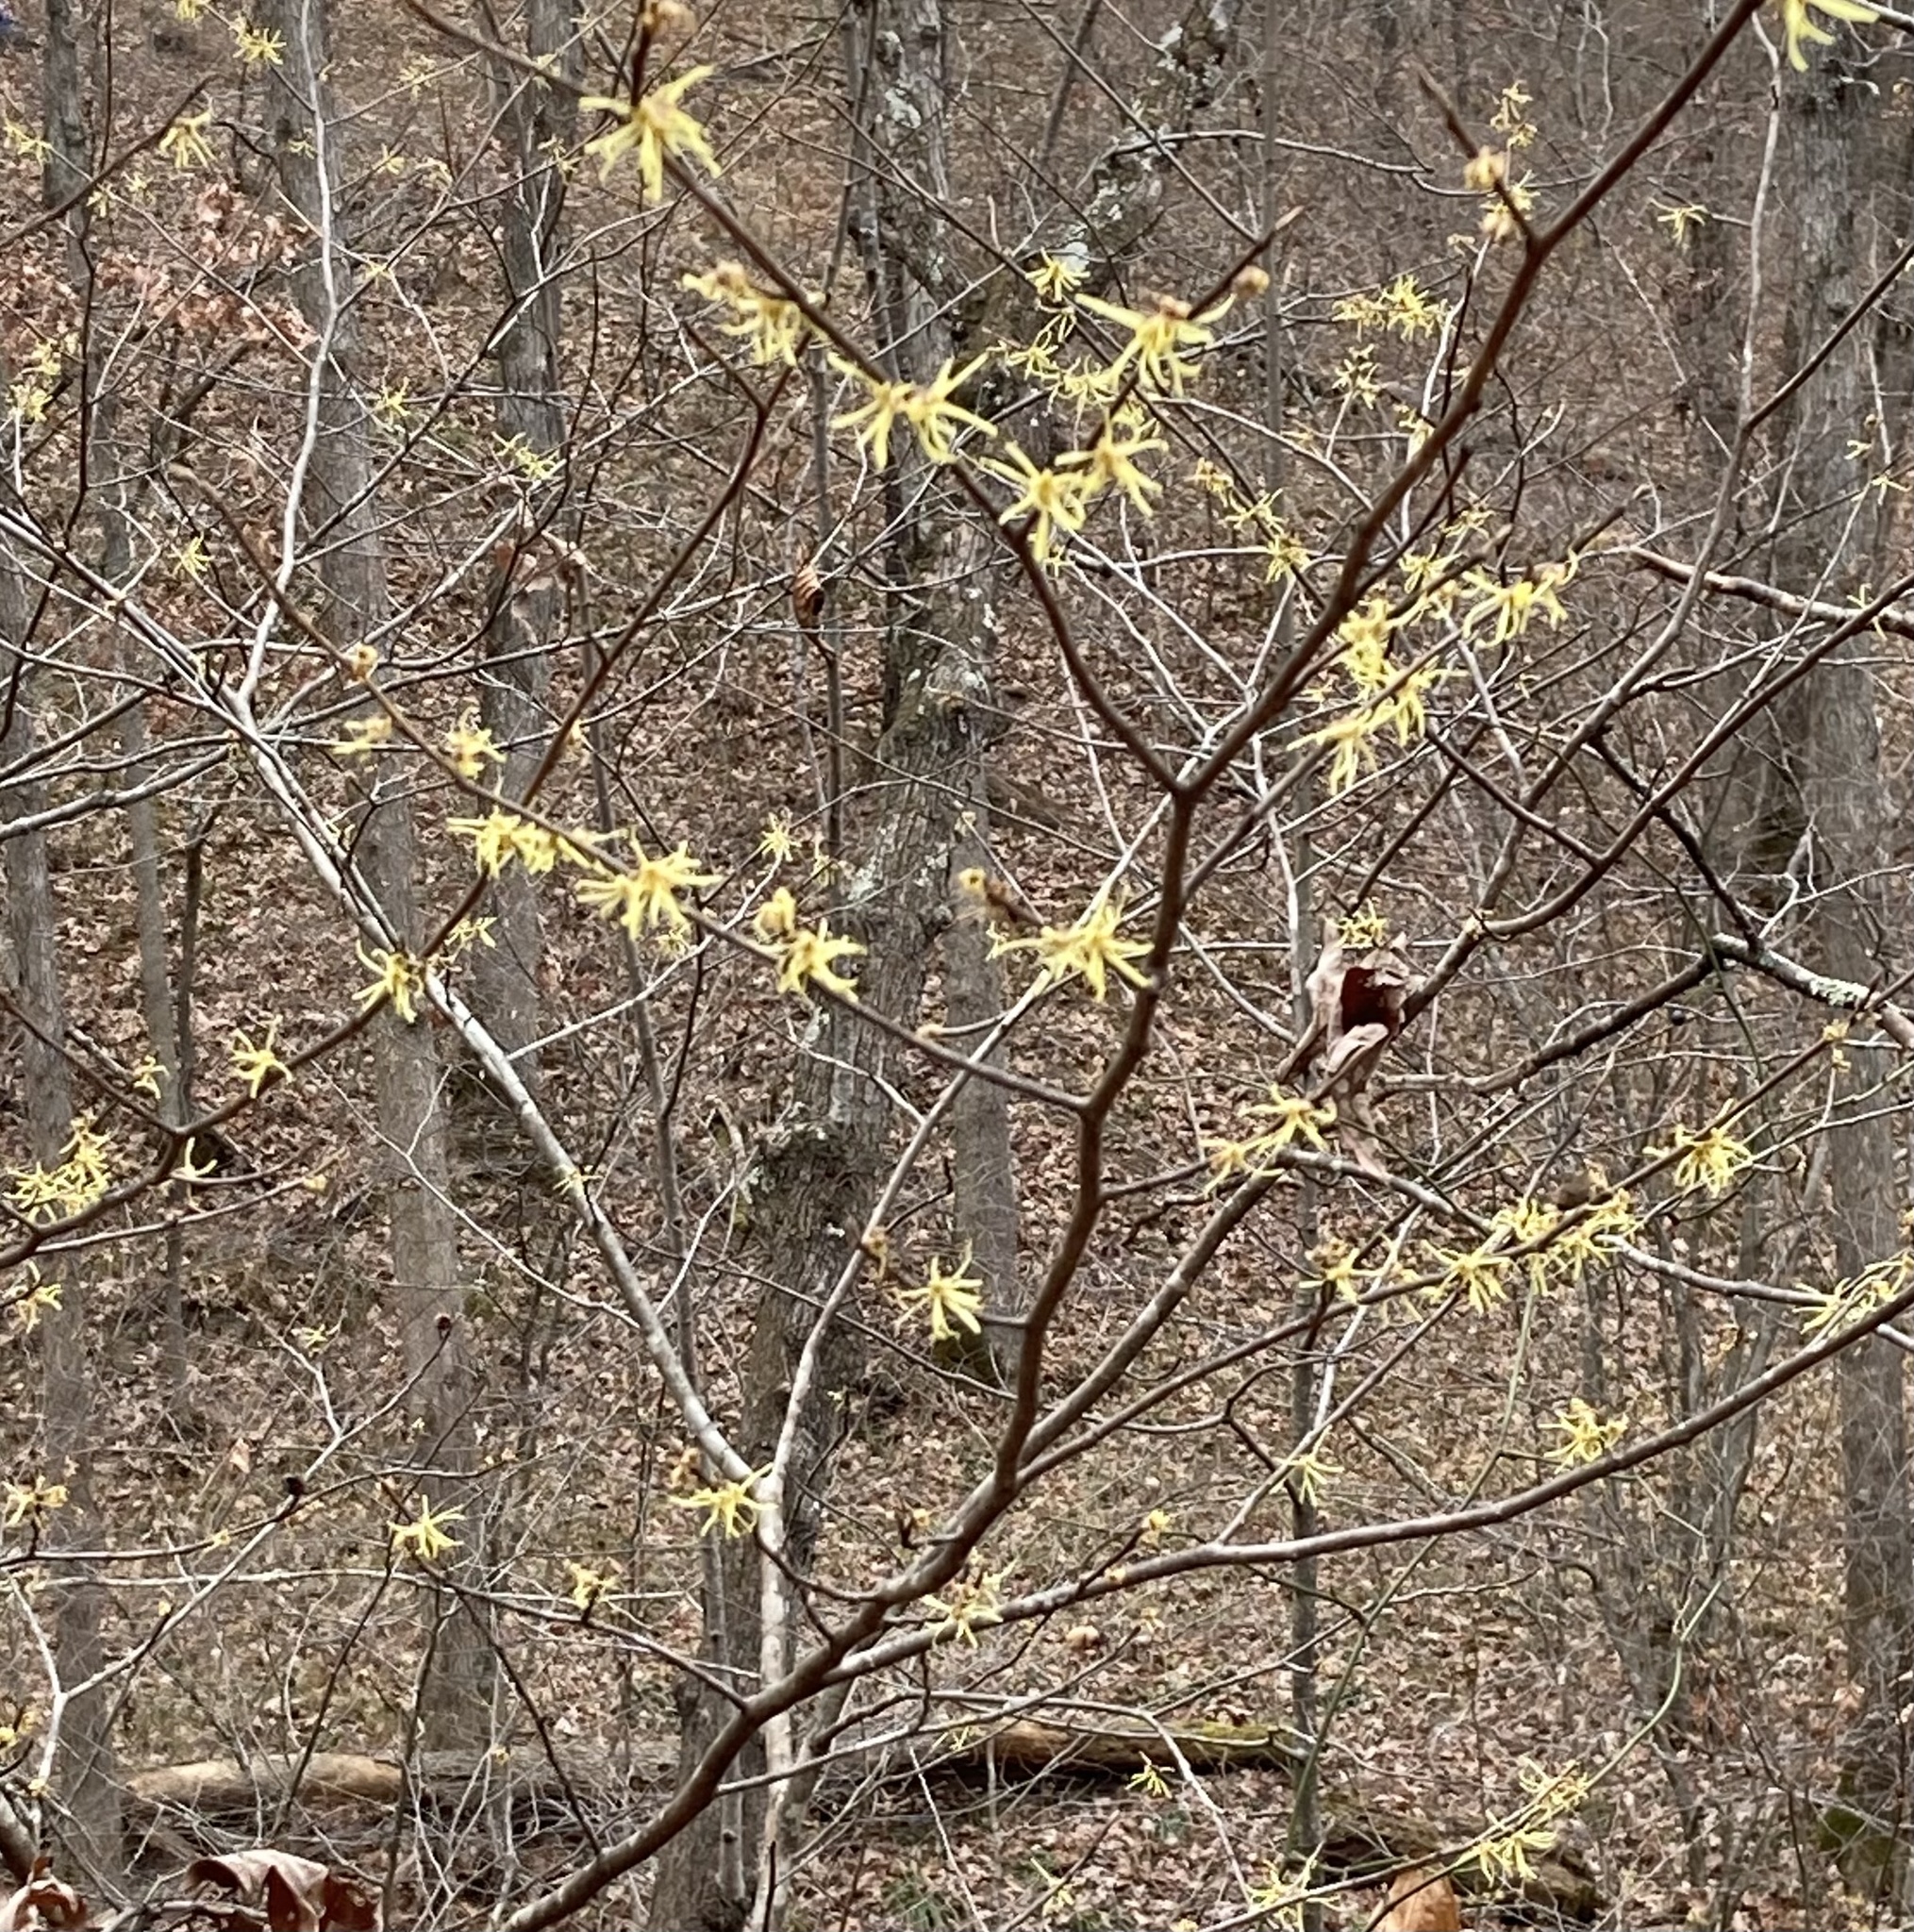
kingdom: Plantae
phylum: Tracheophyta
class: Magnoliopsida
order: Saxifragales
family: Hamamelidaceae
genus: Hamamelis
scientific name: Hamamelis virginiana
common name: Witch-hazel
